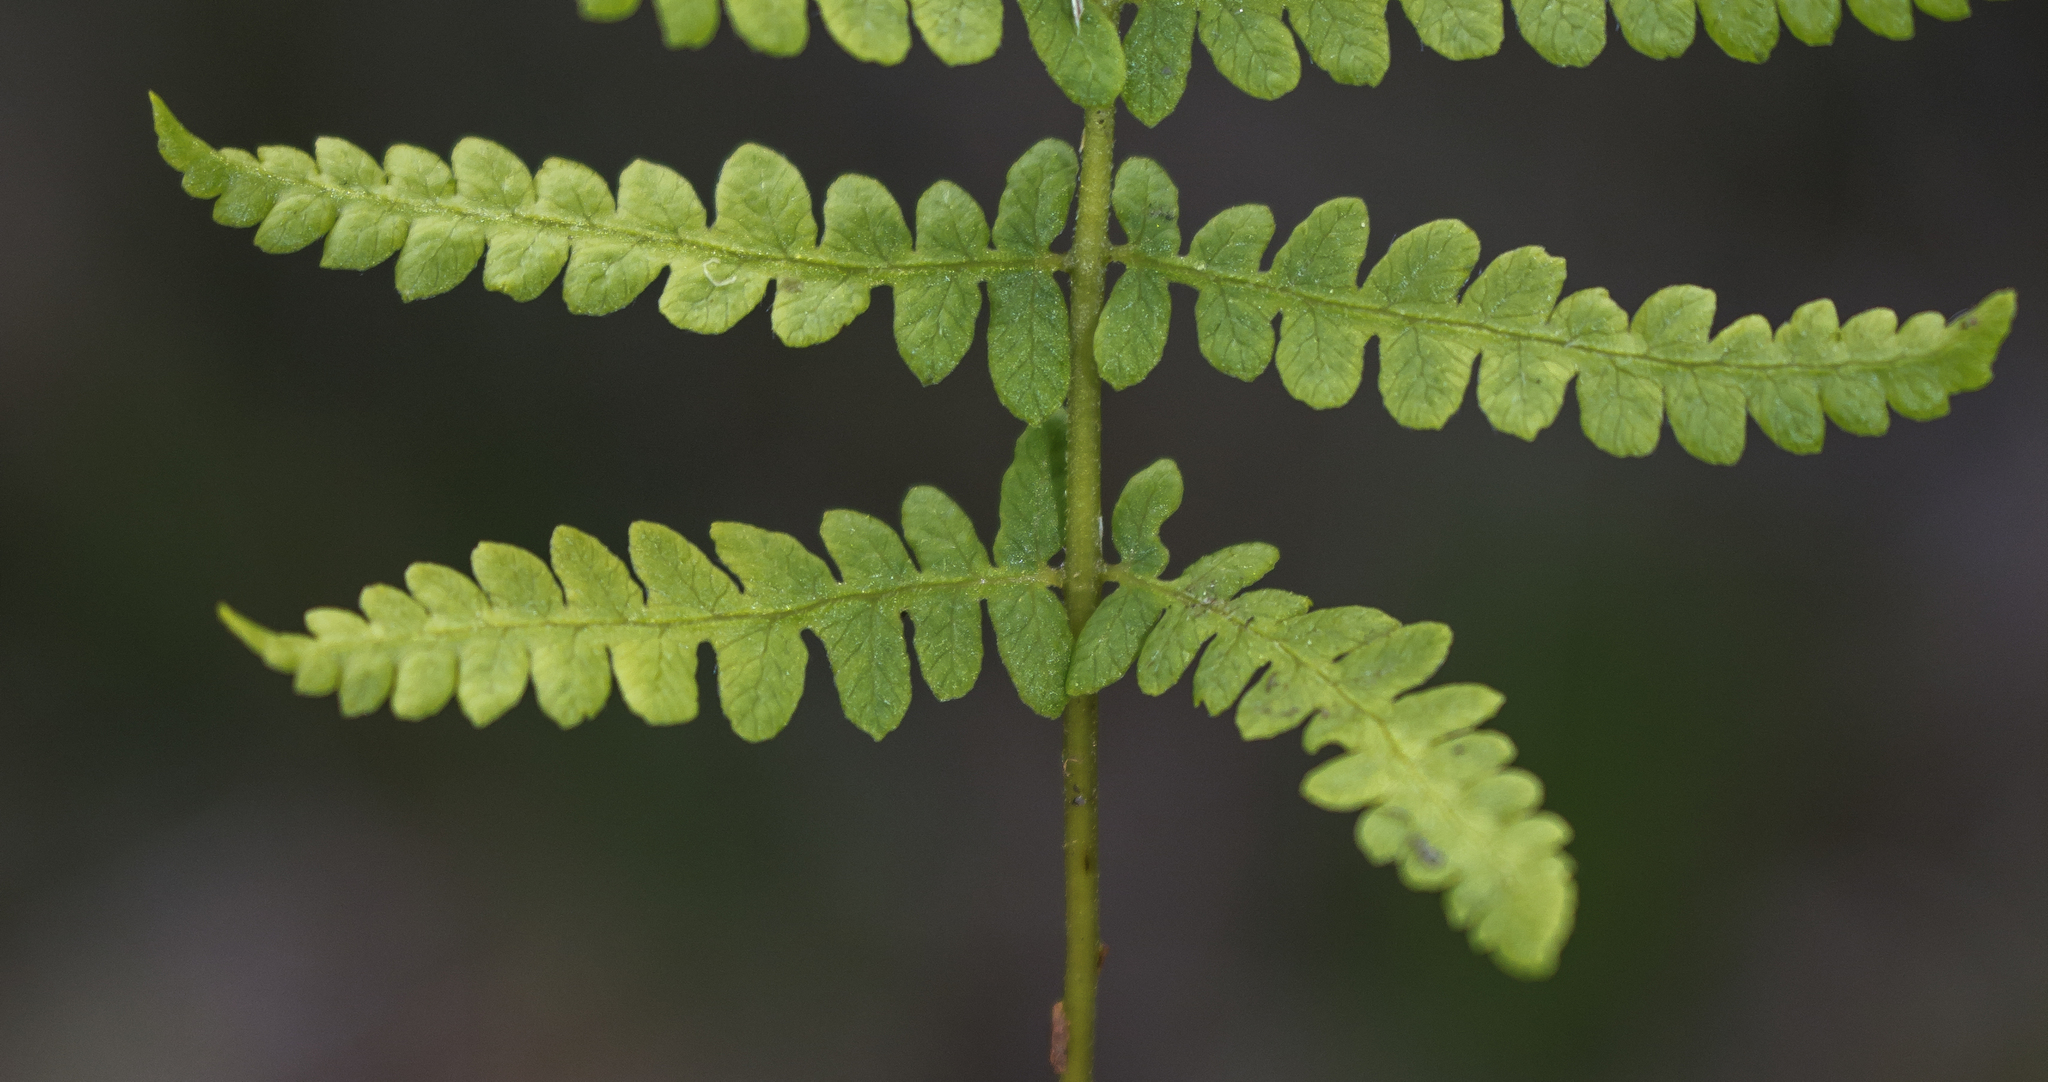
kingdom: Plantae
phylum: Tracheophyta
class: Polypodiopsida
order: Polypodiales
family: Thelypteridaceae
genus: Thelypteris
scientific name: Thelypteris palustris
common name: Marsh fern
